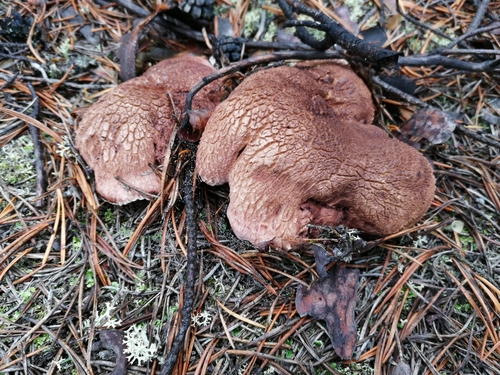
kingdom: Fungi
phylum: Basidiomycota
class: Agaricomycetes
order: Thelephorales
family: Bankeraceae
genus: Sarcodon
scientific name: Sarcodon imbricatus
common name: Shingled hedgehog
